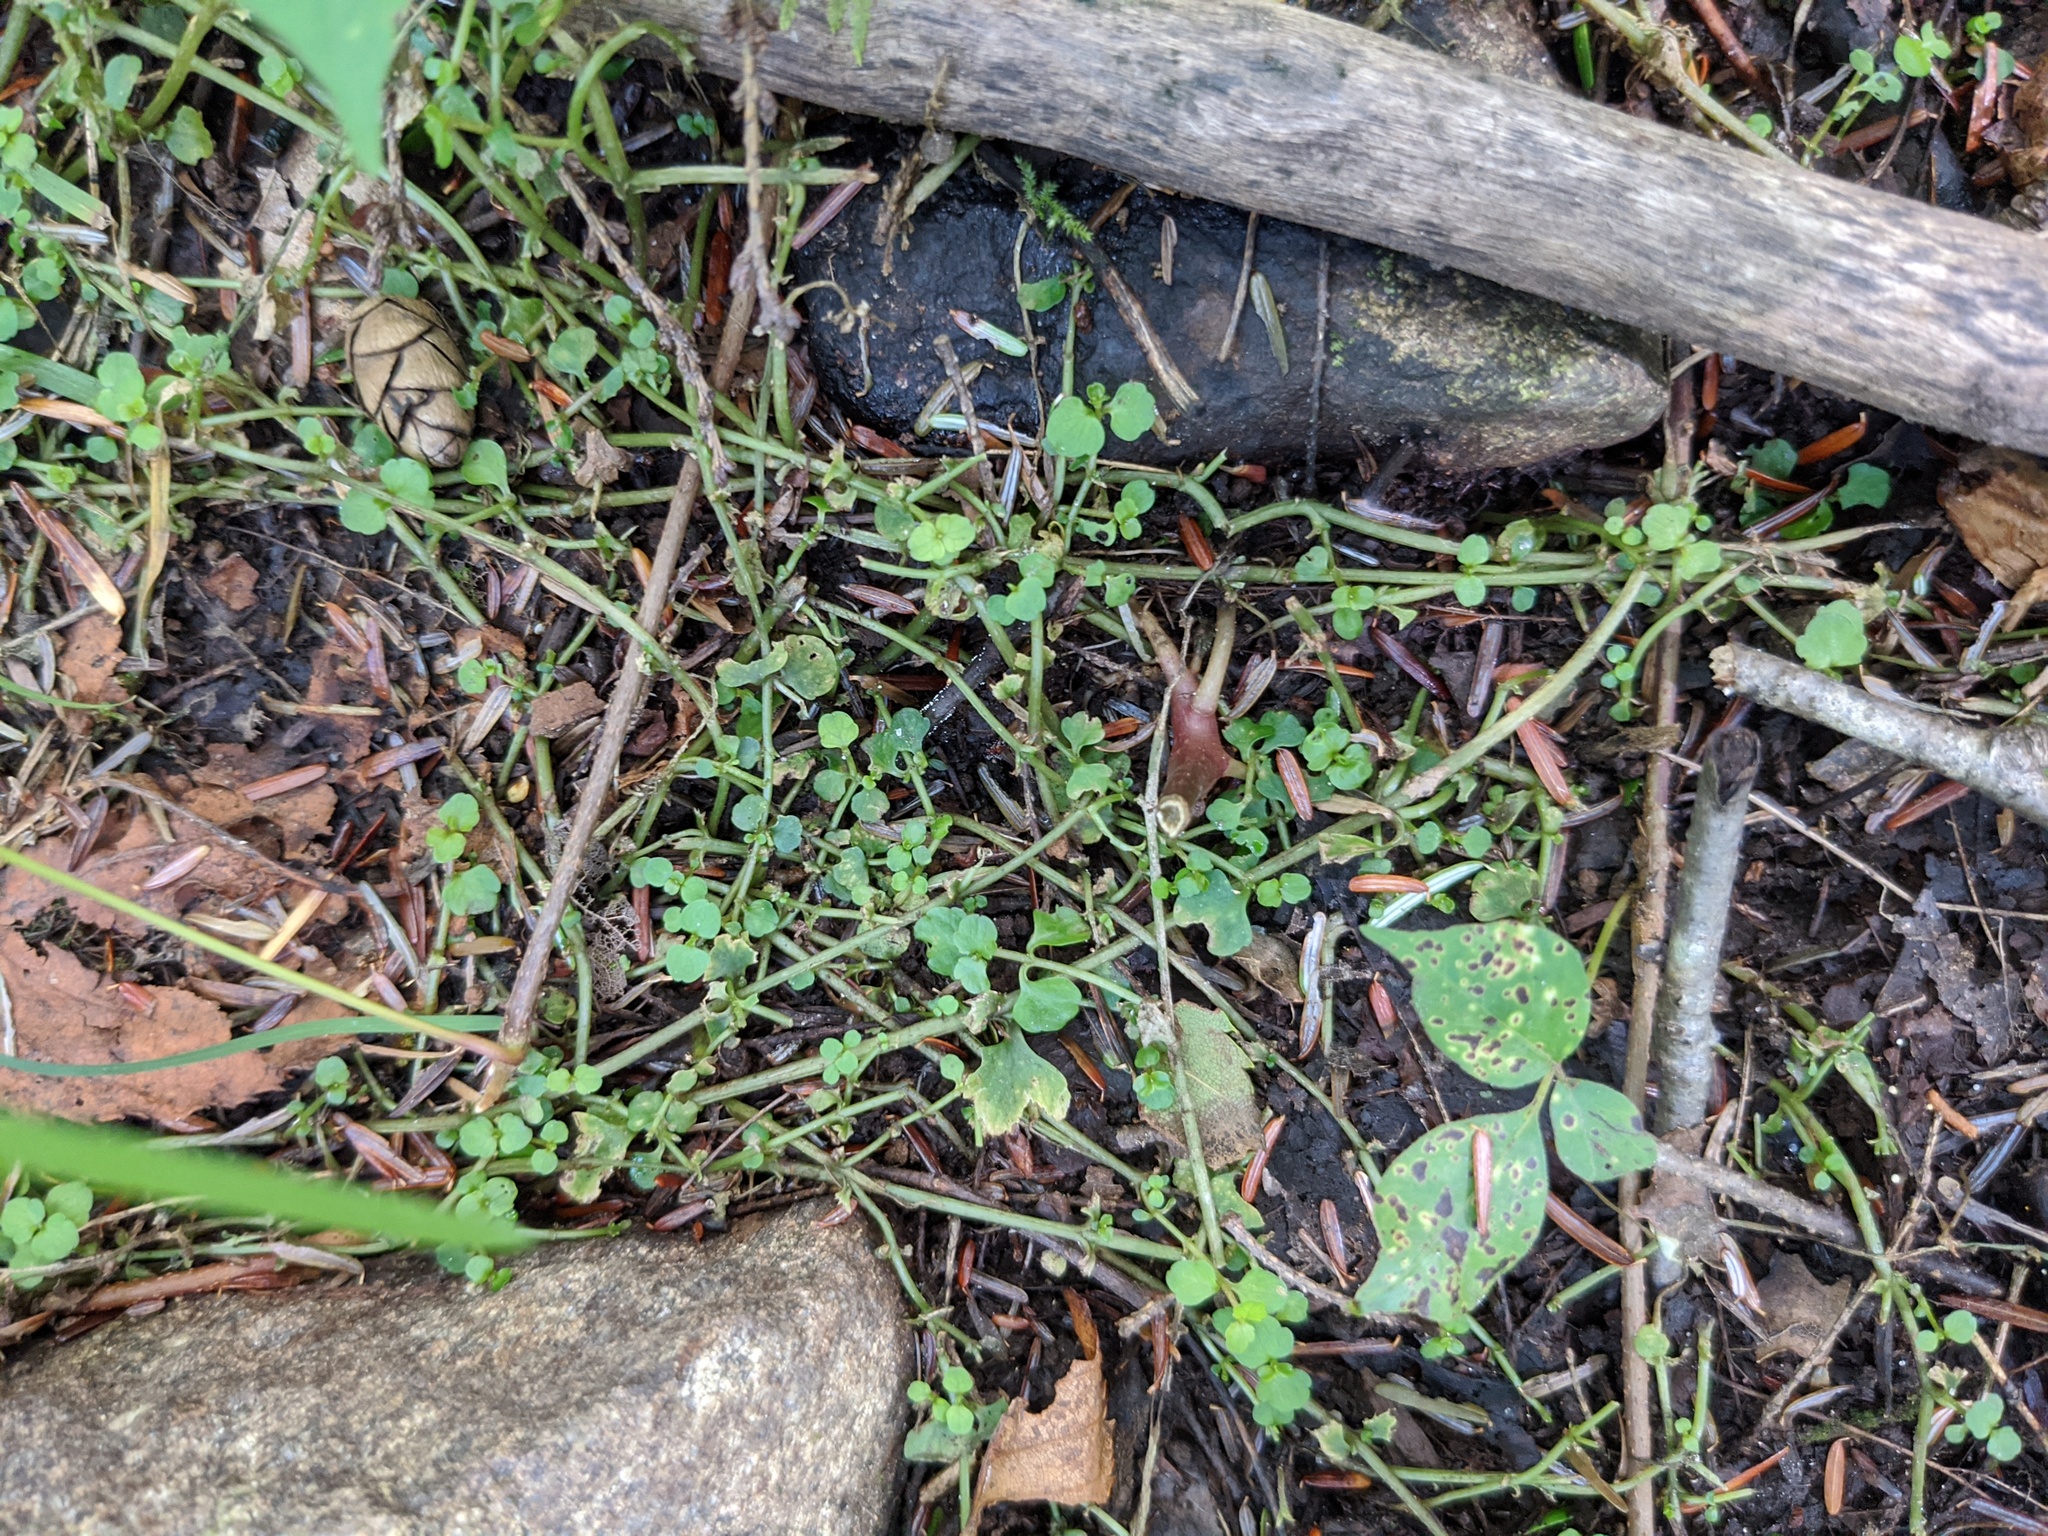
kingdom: Plantae
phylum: Tracheophyta
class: Magnoliopsida
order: Saxifragales
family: Saxifragaceae
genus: Chrysosplenium
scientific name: Chrysosplenium americanum
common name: American golden-saxifrage
